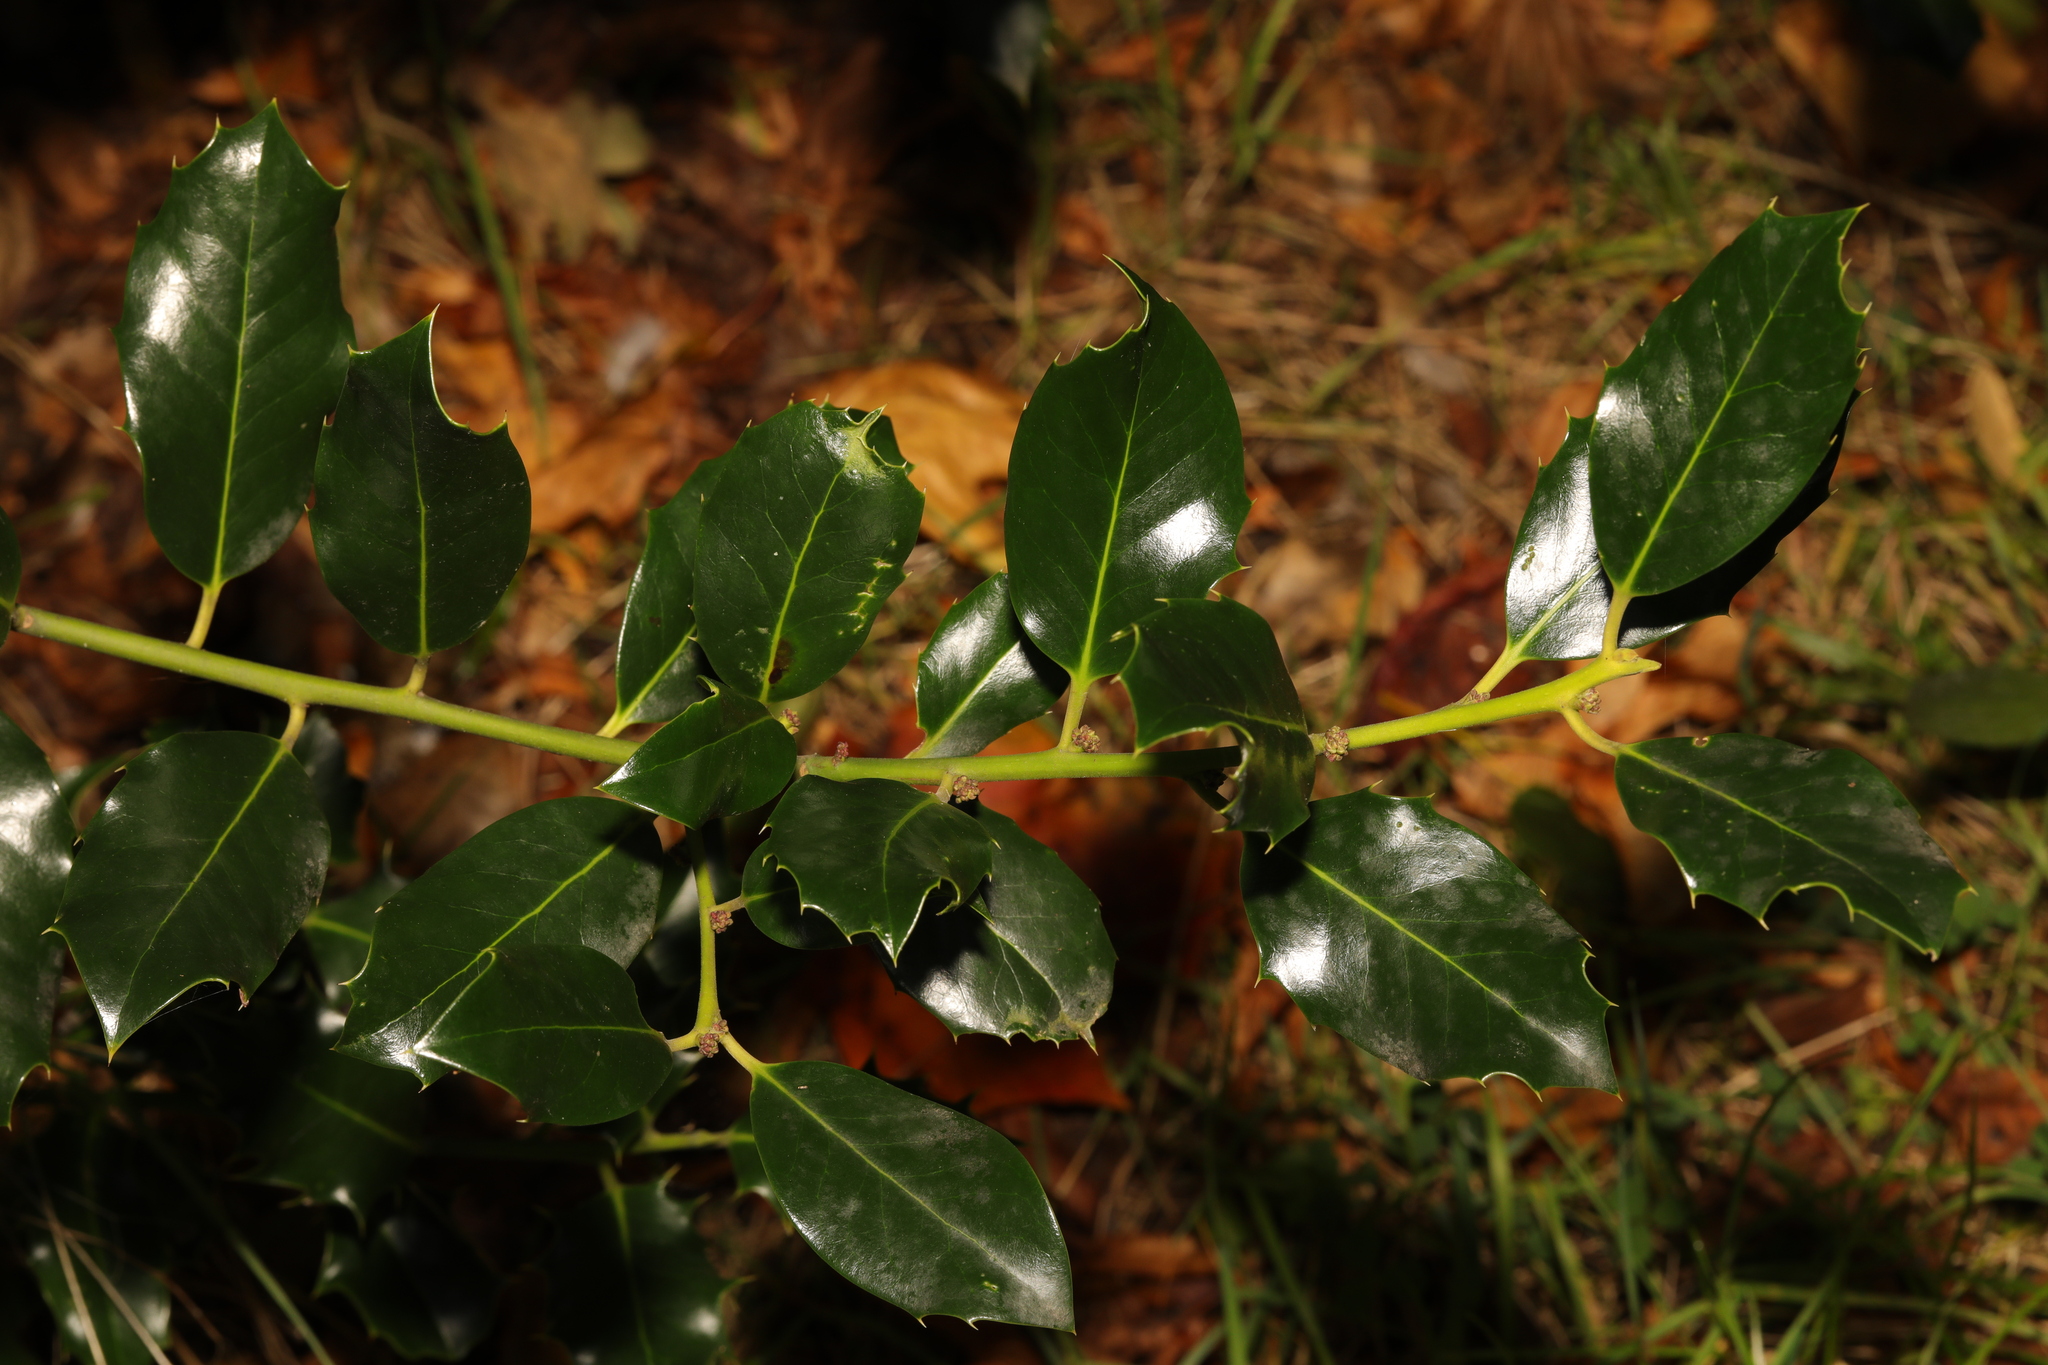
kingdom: Plantae
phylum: Tracheophyta
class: Magnoliopsida
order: Aquifoliales
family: Aquifoliaceae
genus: Ilex
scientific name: Ilex aquifolium
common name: English holly
